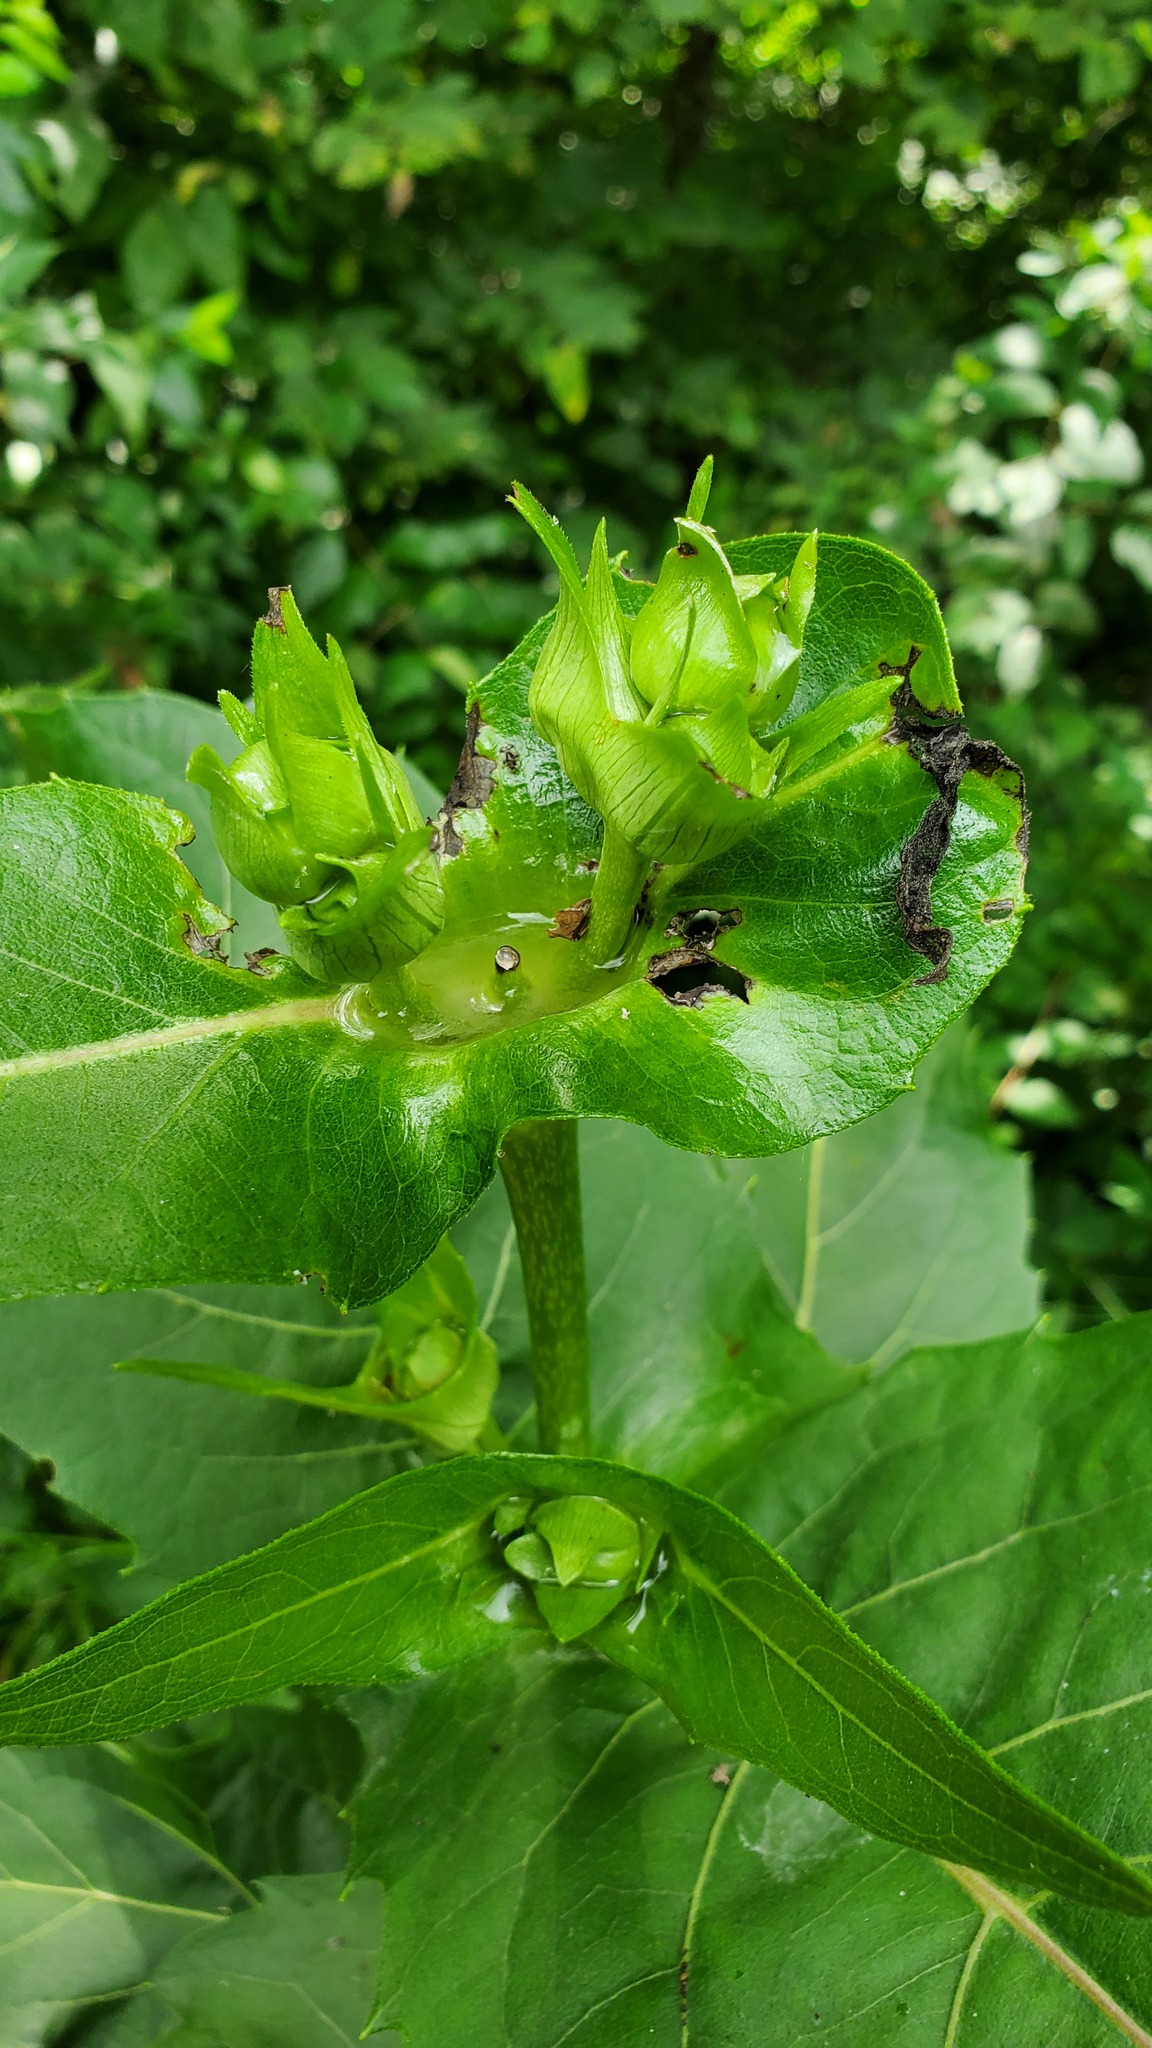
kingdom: Plantae
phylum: Tracheophyta
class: Magnoliopsida
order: Asterales
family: Asteraceae
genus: Silphium
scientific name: Silphium perfoliatum
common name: Cup-plant
